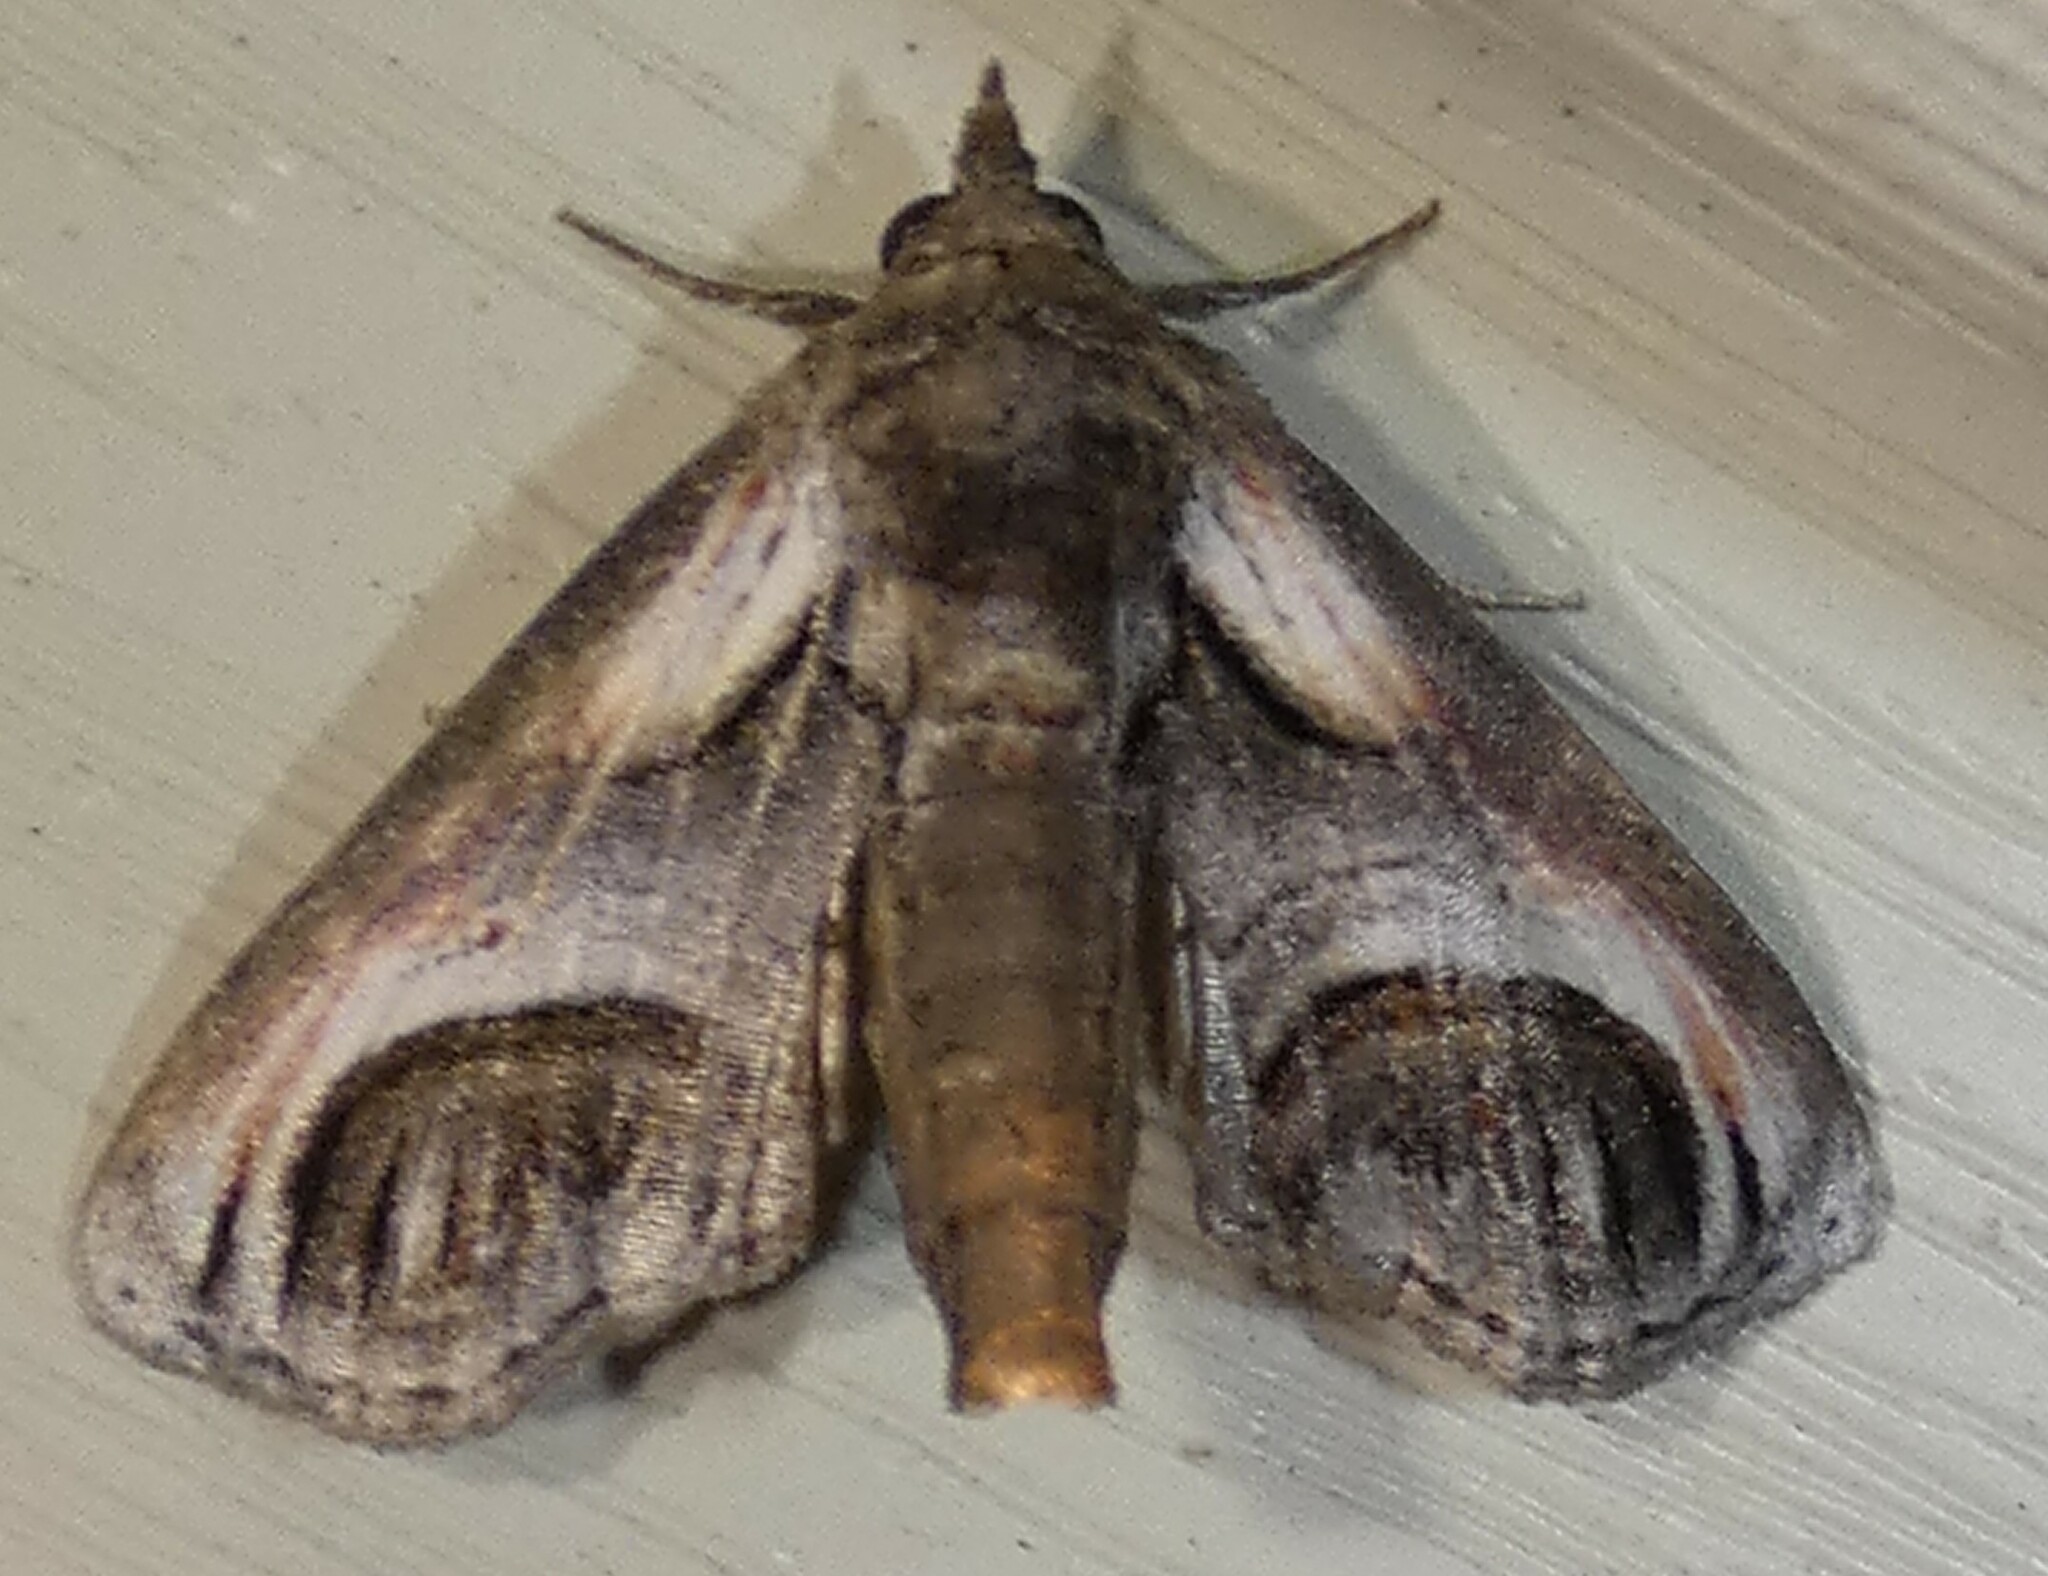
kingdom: Animalia
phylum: Arthropoda
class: Insecta
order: Lepidoptera
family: Euteliidae
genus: Paectes
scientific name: Paectes oculatrix
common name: Eyed paectes moth
